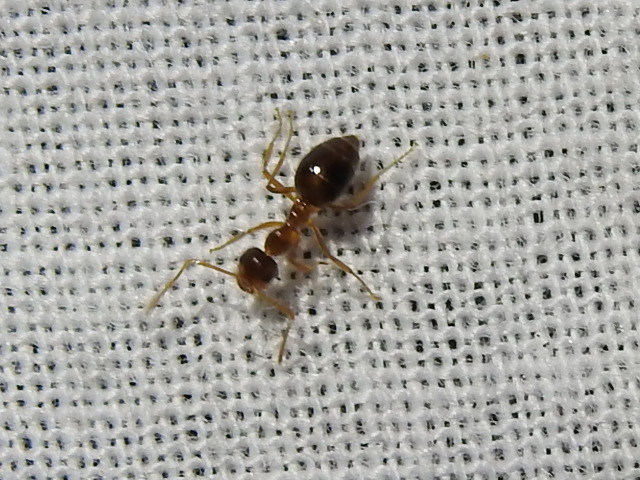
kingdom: Animalia
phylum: Arthropoda
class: Insecta
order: Hymenoptera
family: Formicidae
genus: Prenolepis
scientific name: Prenolepis imparis
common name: Small honey ant
